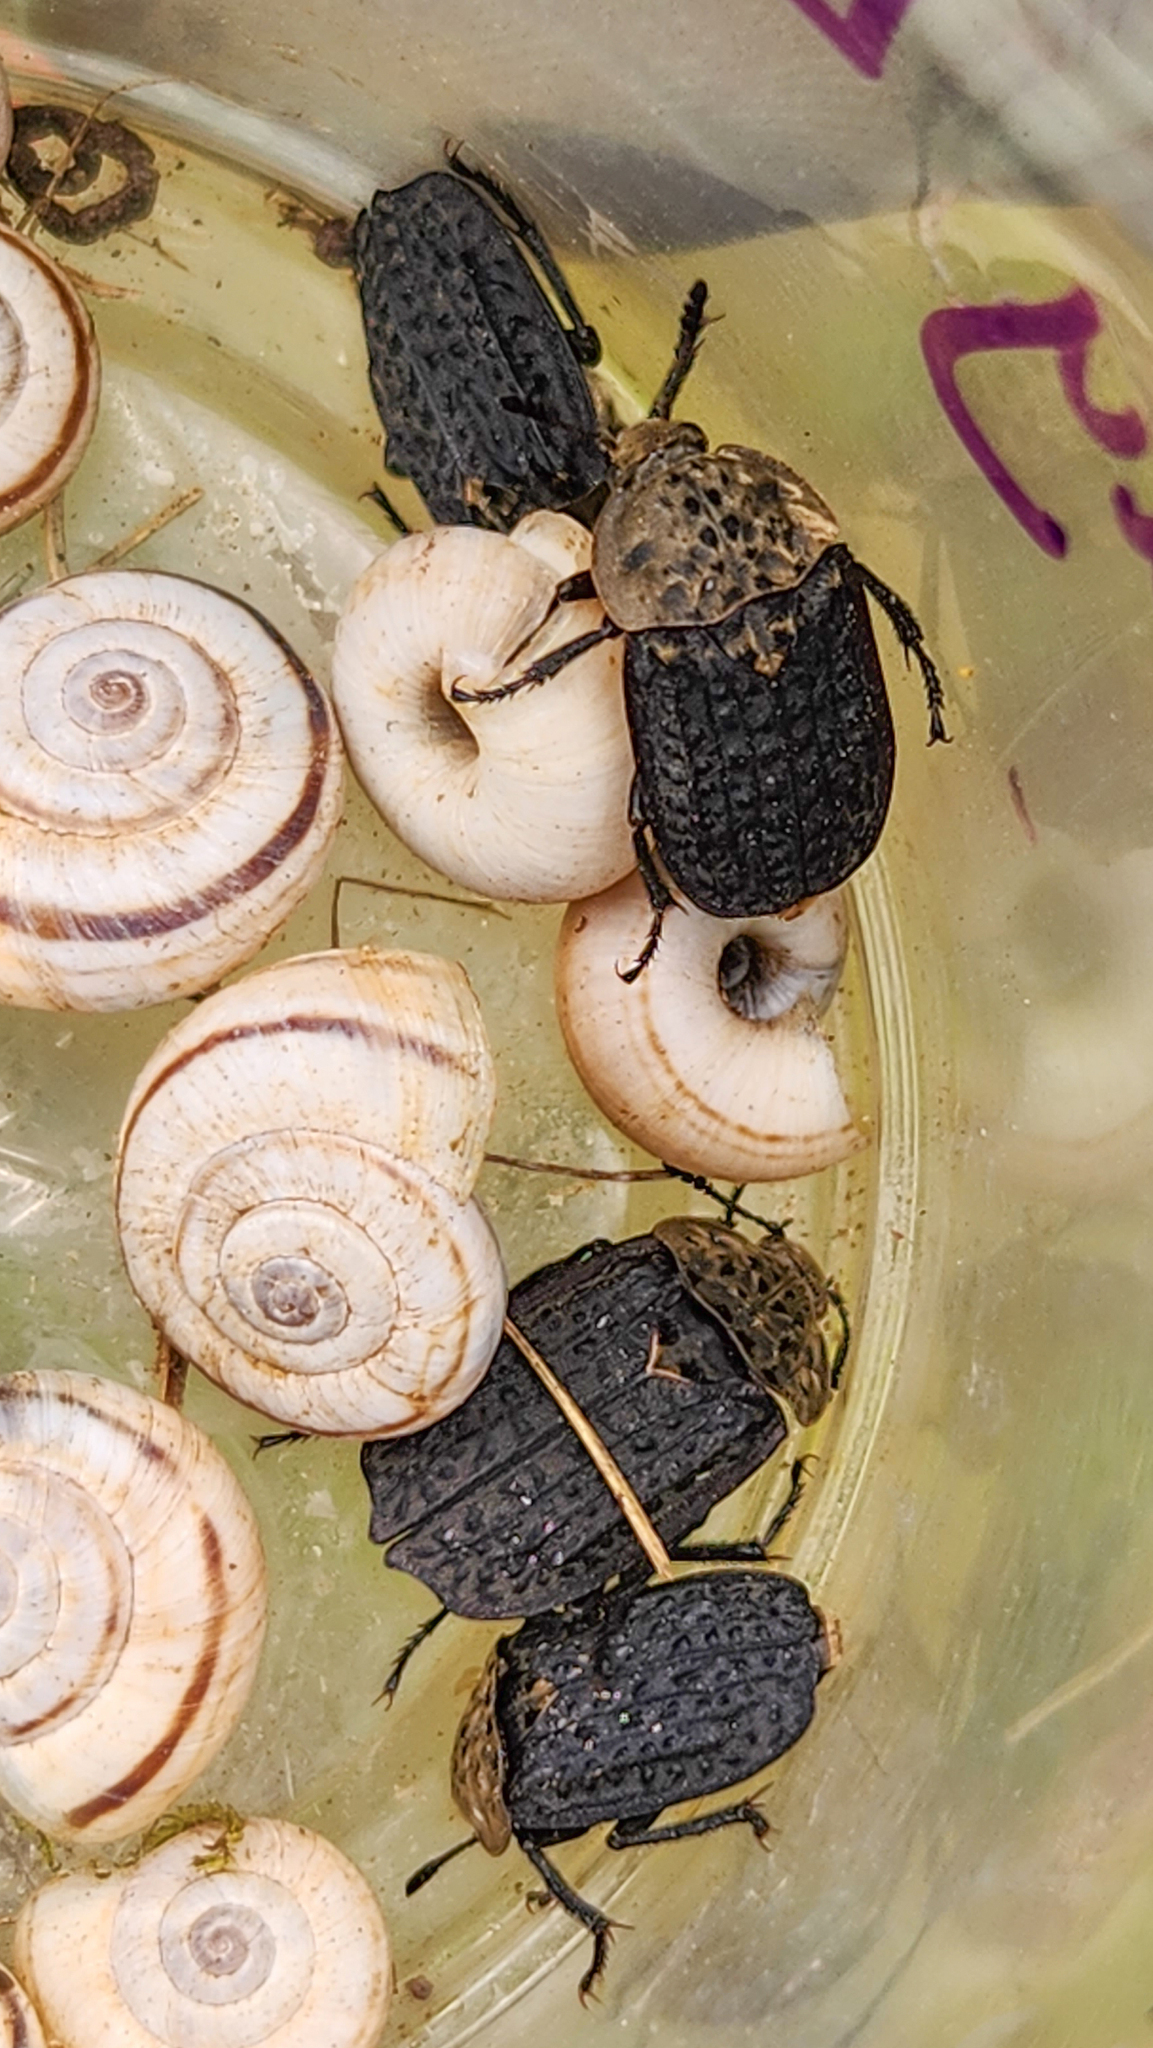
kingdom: Animalia
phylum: Arthropoda
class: Insecta
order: Coleoptera
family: Staphylinidae
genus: Thanatophilus
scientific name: Thanatophilus lapponicus
